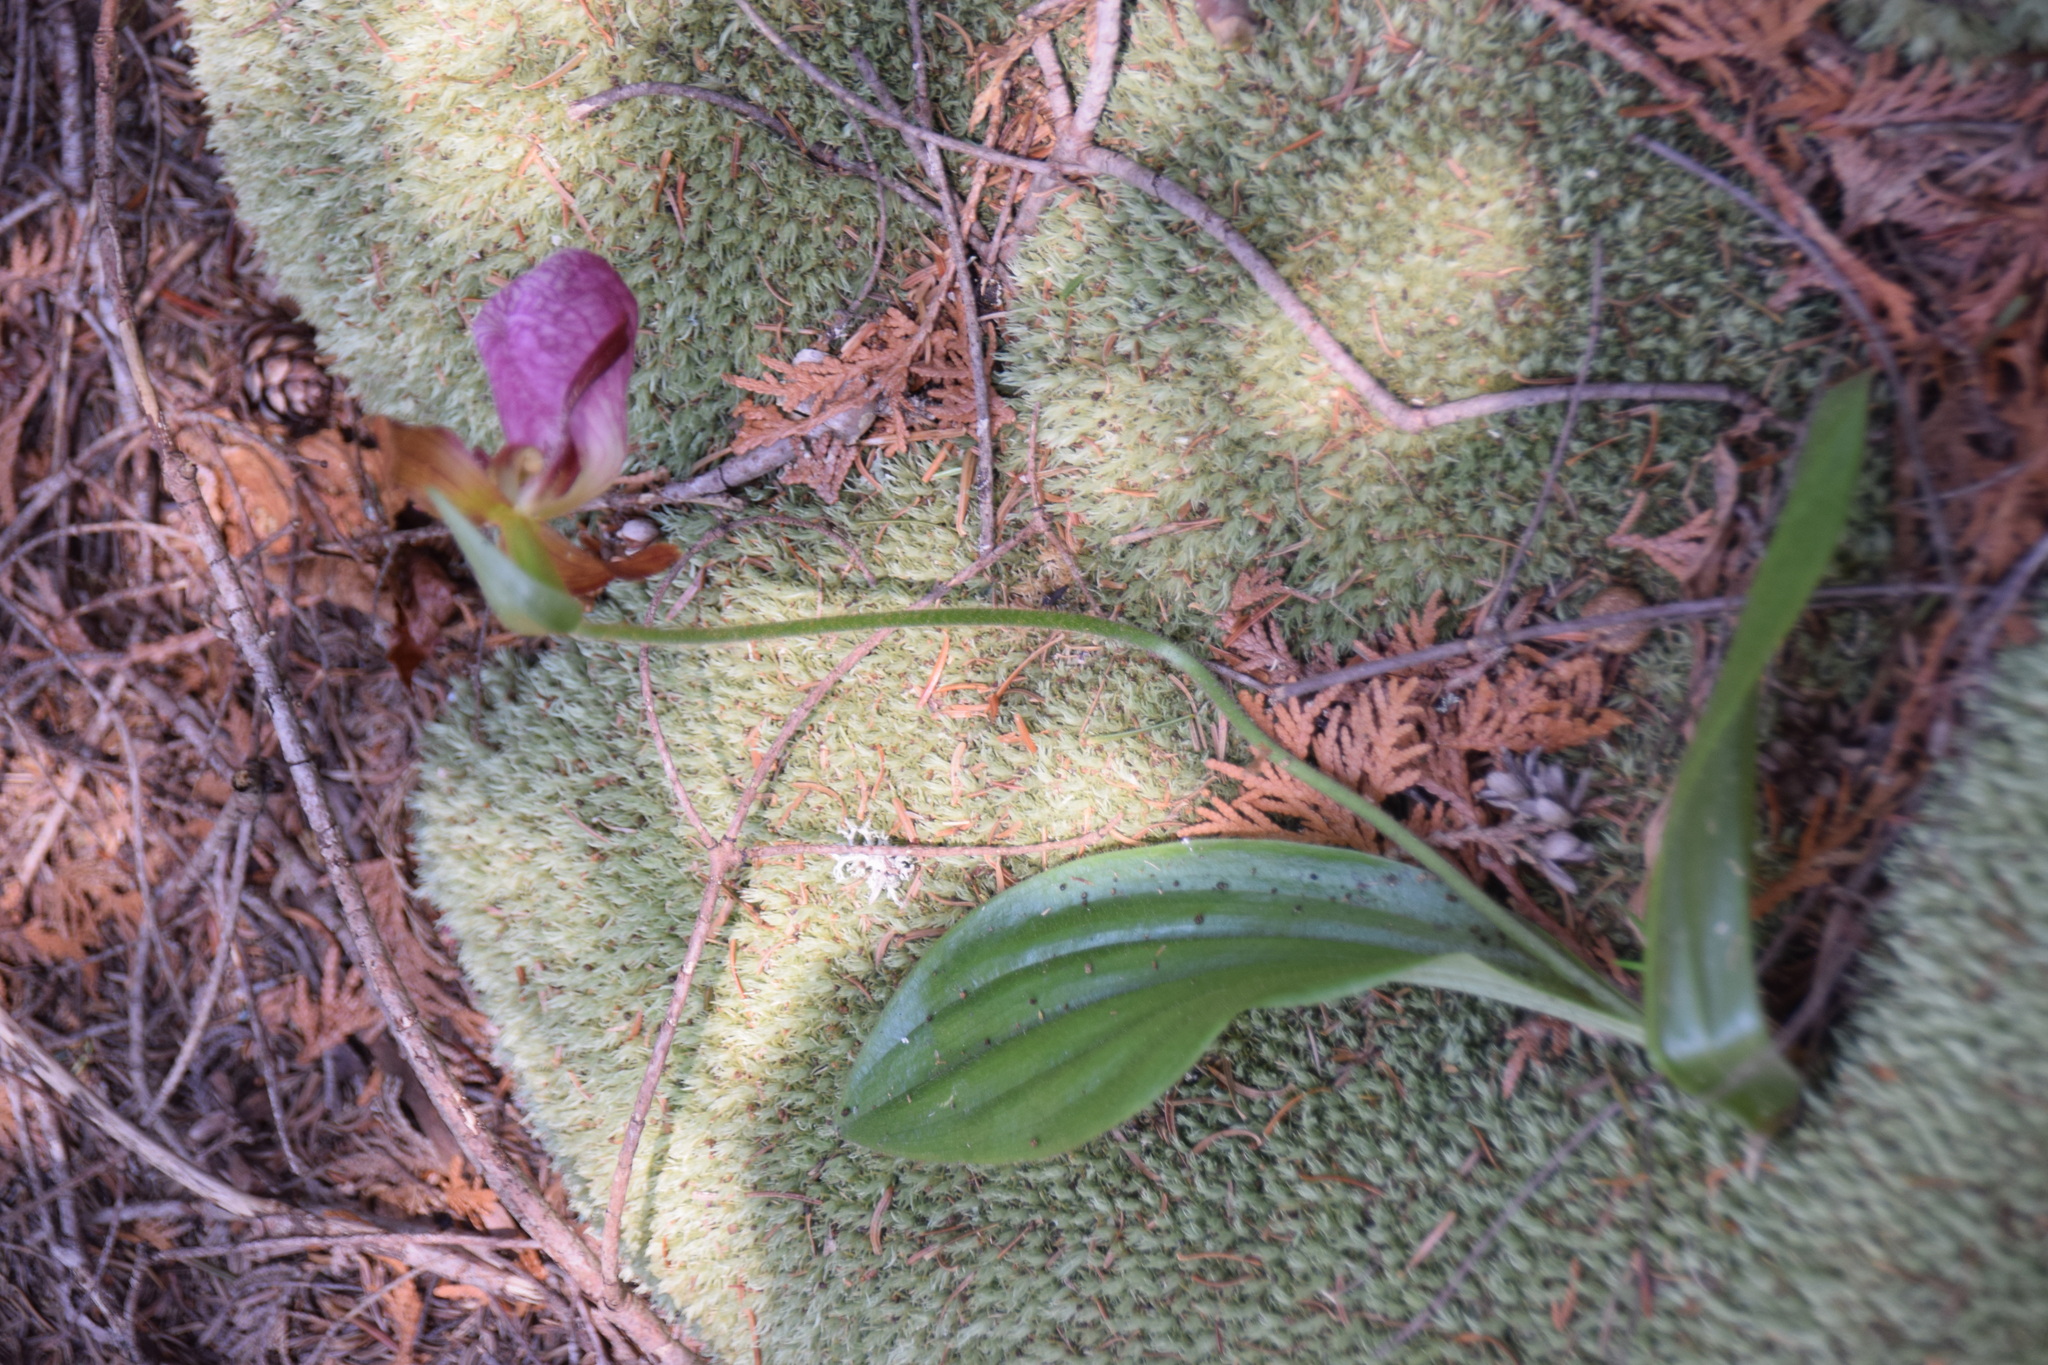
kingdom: Plantae
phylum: Tracheophyta
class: Liliopsida
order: Asparagales
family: Orchidaceae
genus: Cypripedium
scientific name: Cypripedium acaule
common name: Pink lady's-slipper
